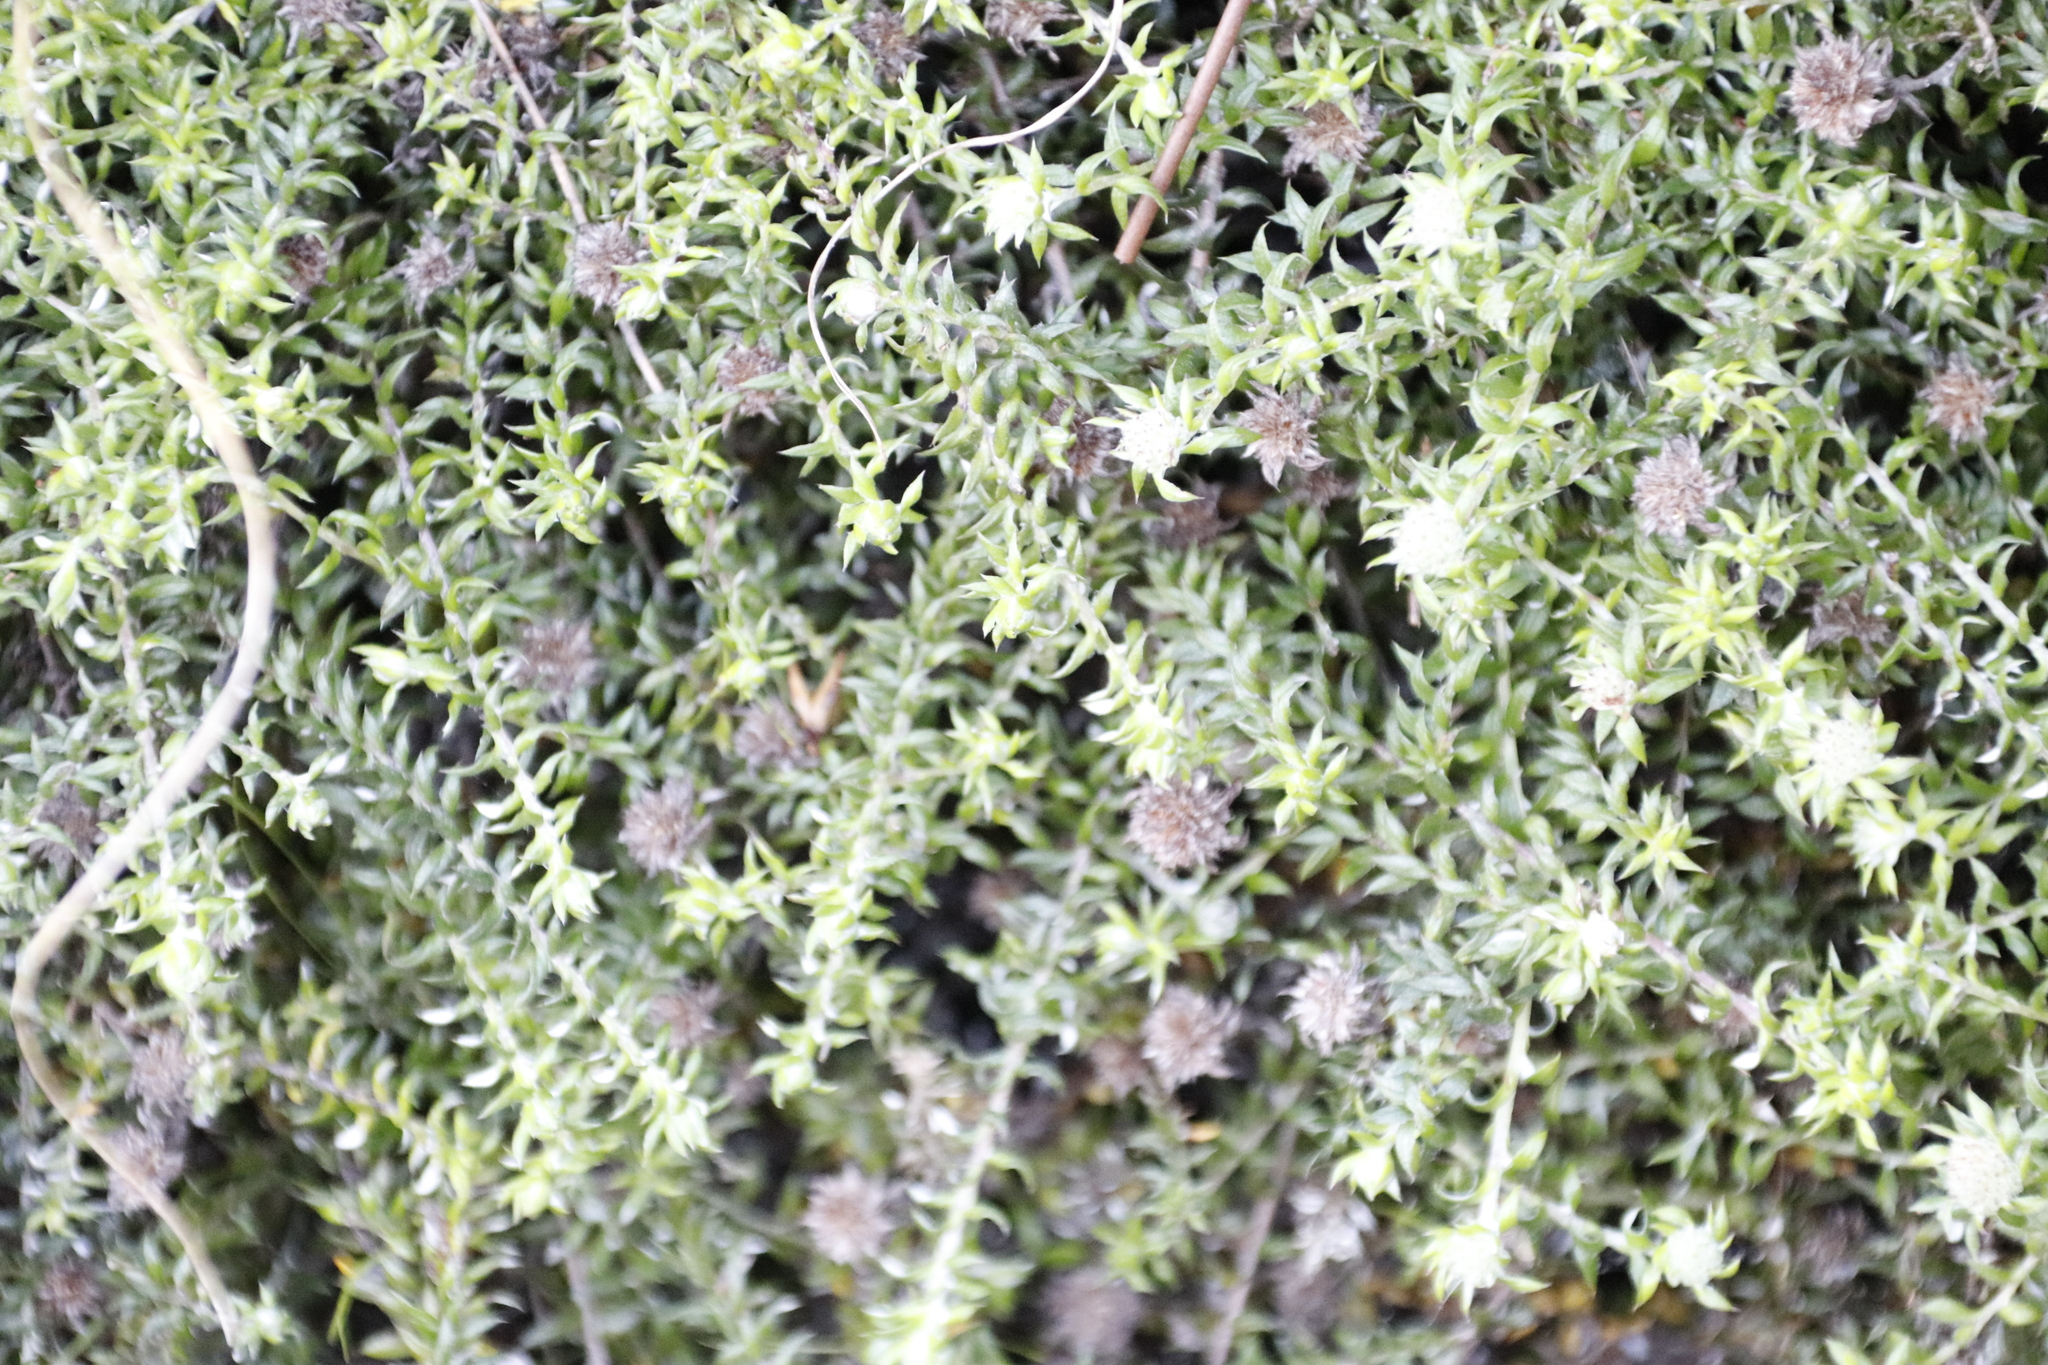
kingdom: Plantae
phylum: Tracheophyta
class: Magnoliopsida
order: Asterales
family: Asteraceae
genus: Stoebe
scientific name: Stoebe prostrata
